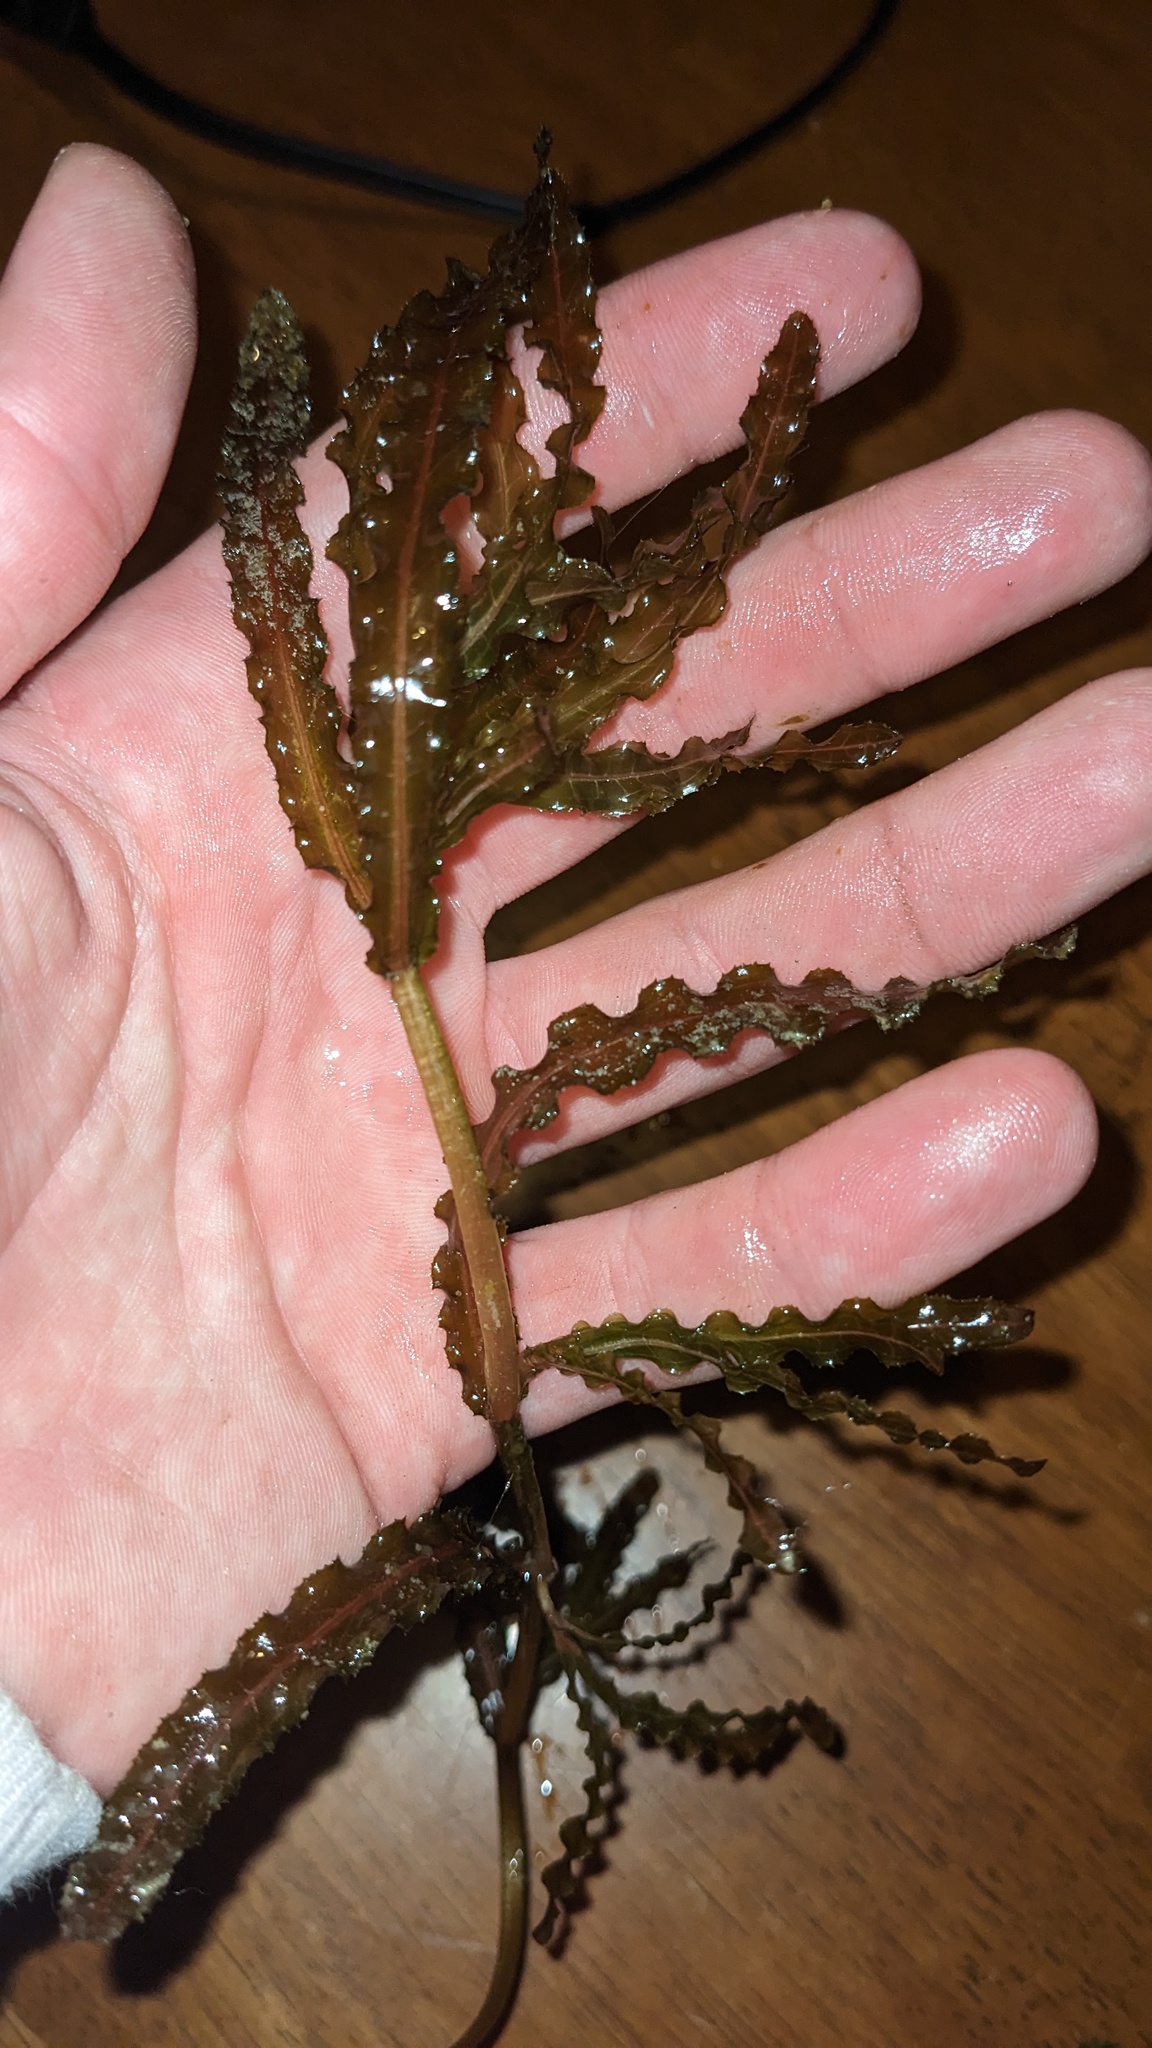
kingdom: Plantae
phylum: Tracheophyta
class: Liliopsida
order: Alismatales
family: Potamogetonaceae
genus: Potamogeton
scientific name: Potamogeton crispus
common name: Curled pondweed
